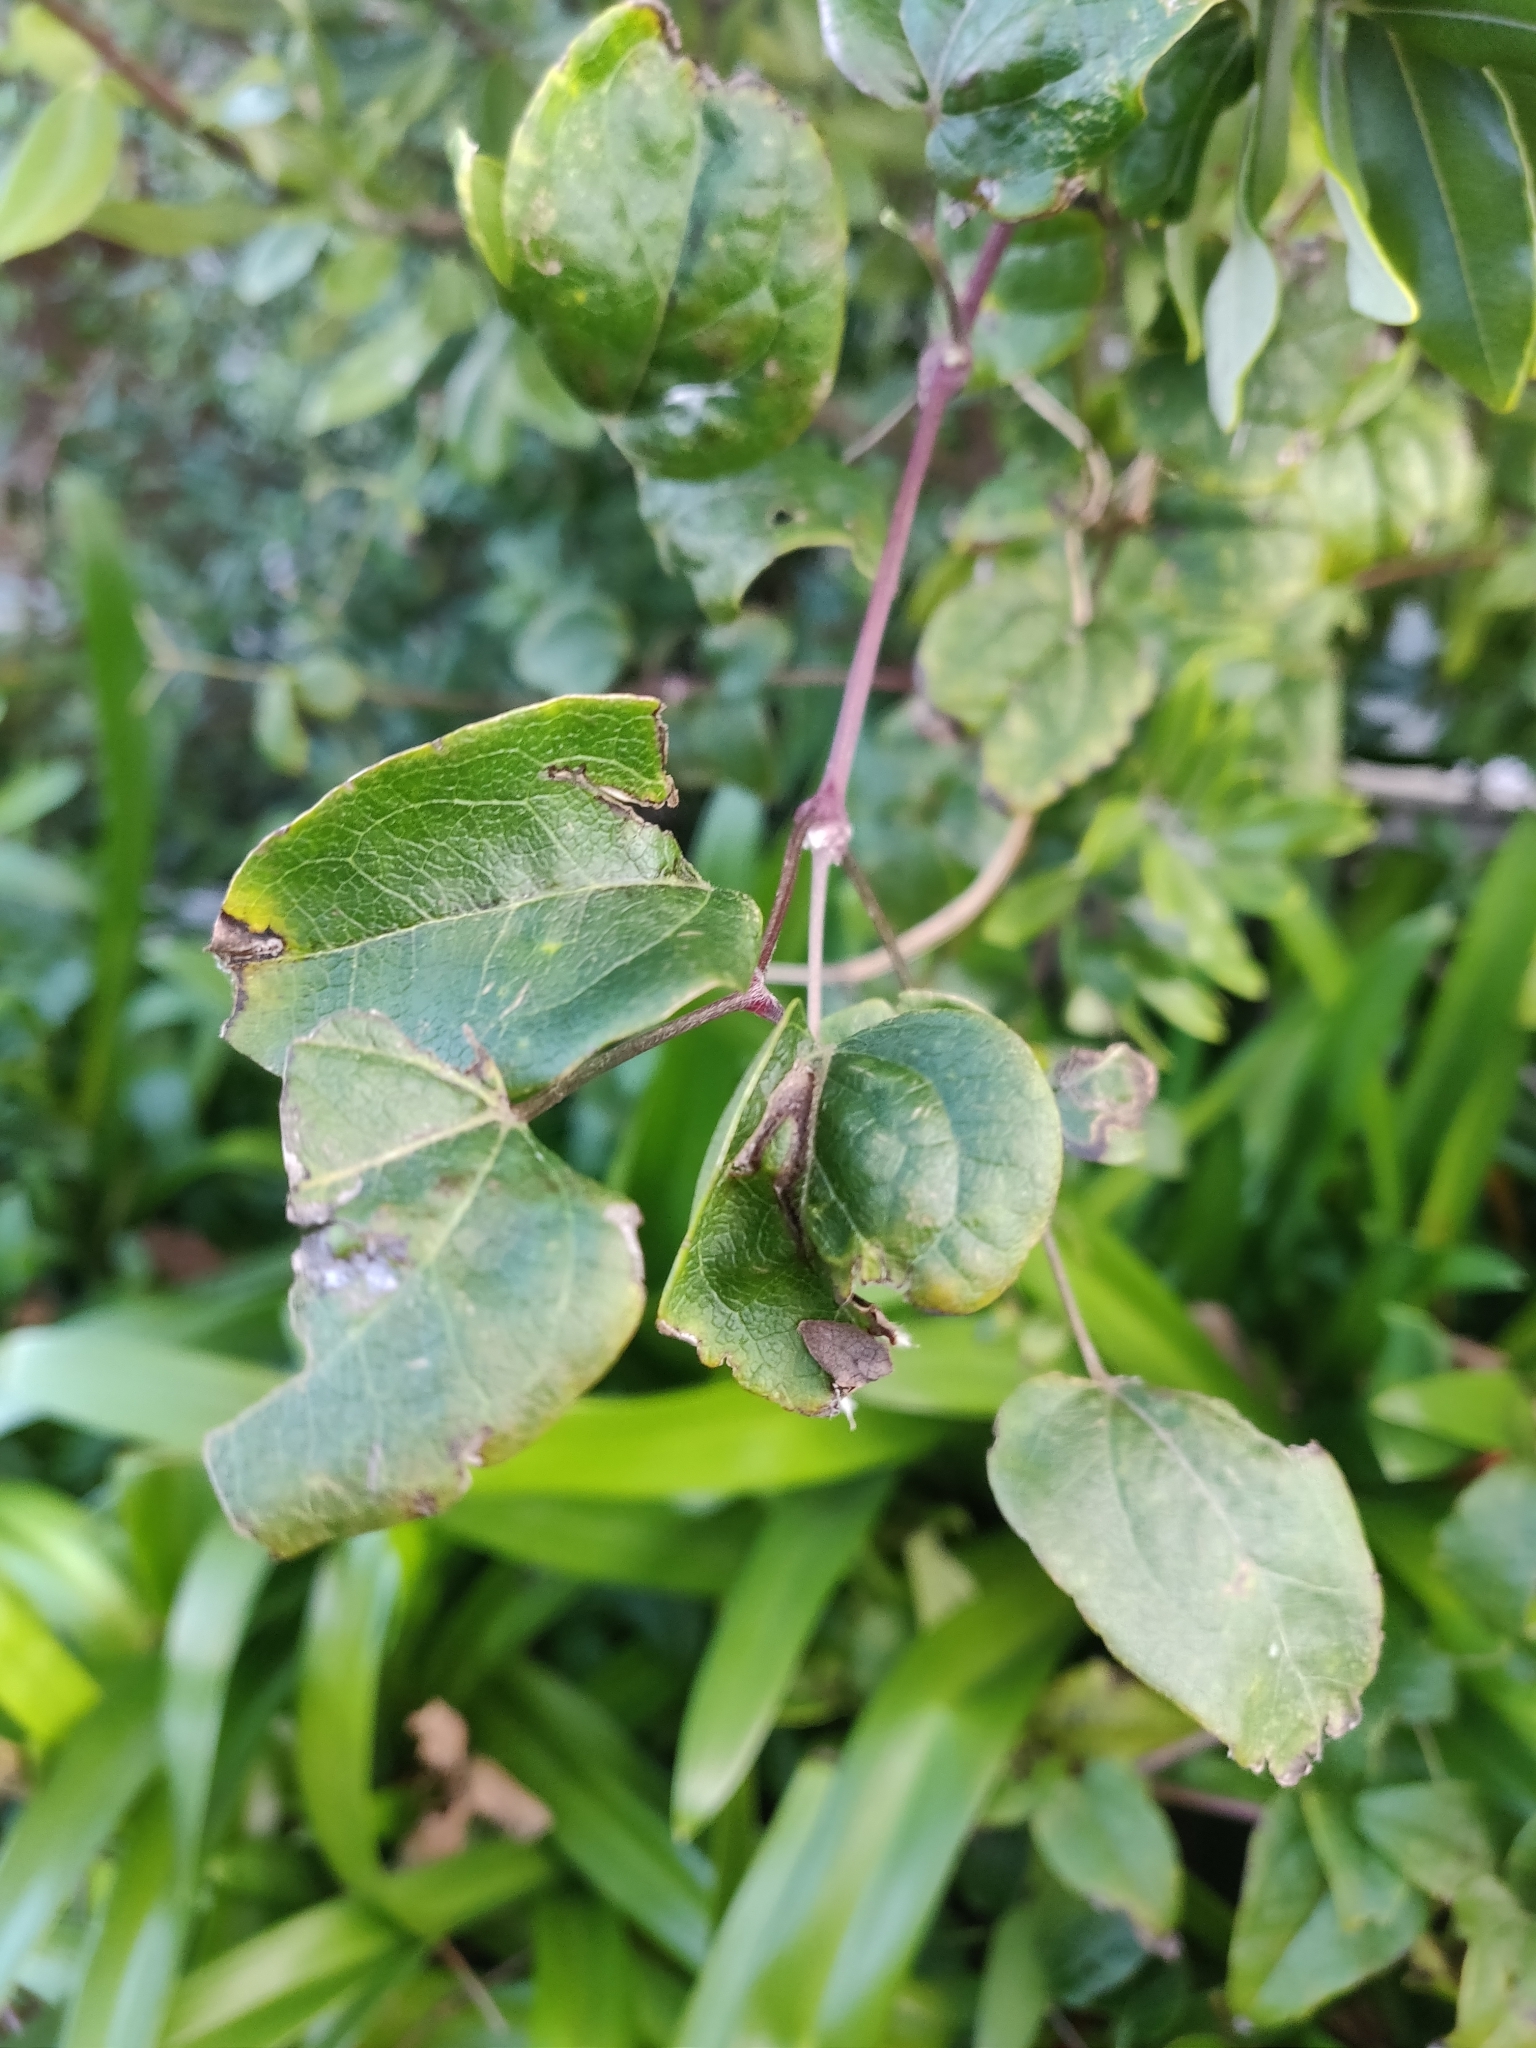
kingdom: Plantae
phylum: Tracheophyta
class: Magnoliopsida
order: Ranunculales
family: Ranunculaceae
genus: Clematis
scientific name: Clematis vitalba
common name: Evergreen clematis
